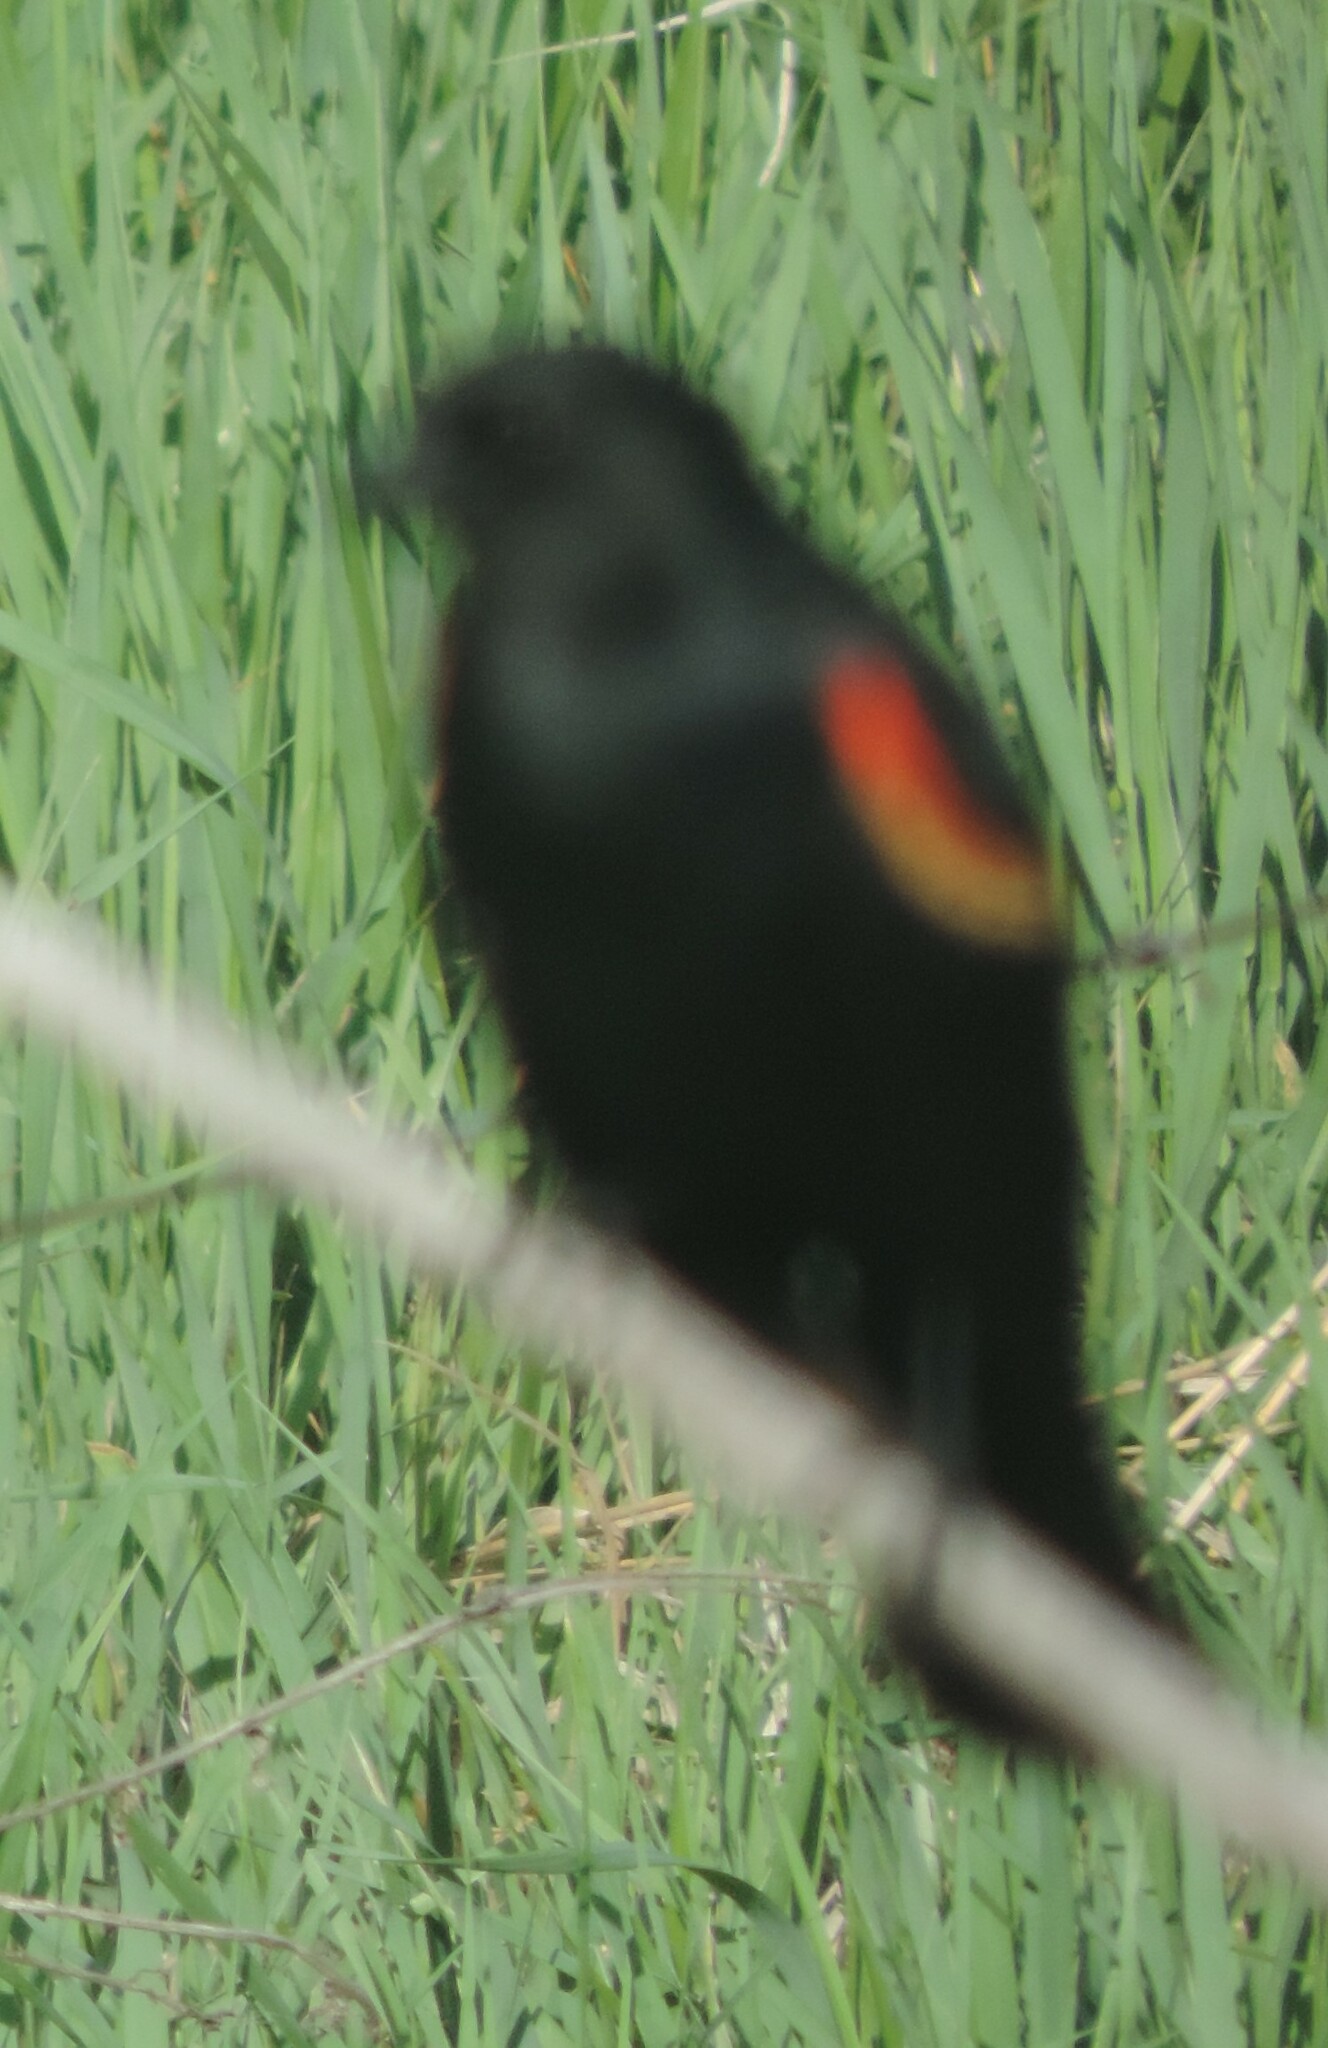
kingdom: Animalia
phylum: Chordata
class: Aves
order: Passeriformes
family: Icteridae
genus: Agelaius
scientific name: Agelaius phoeniceus
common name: Red-winged blackbird
